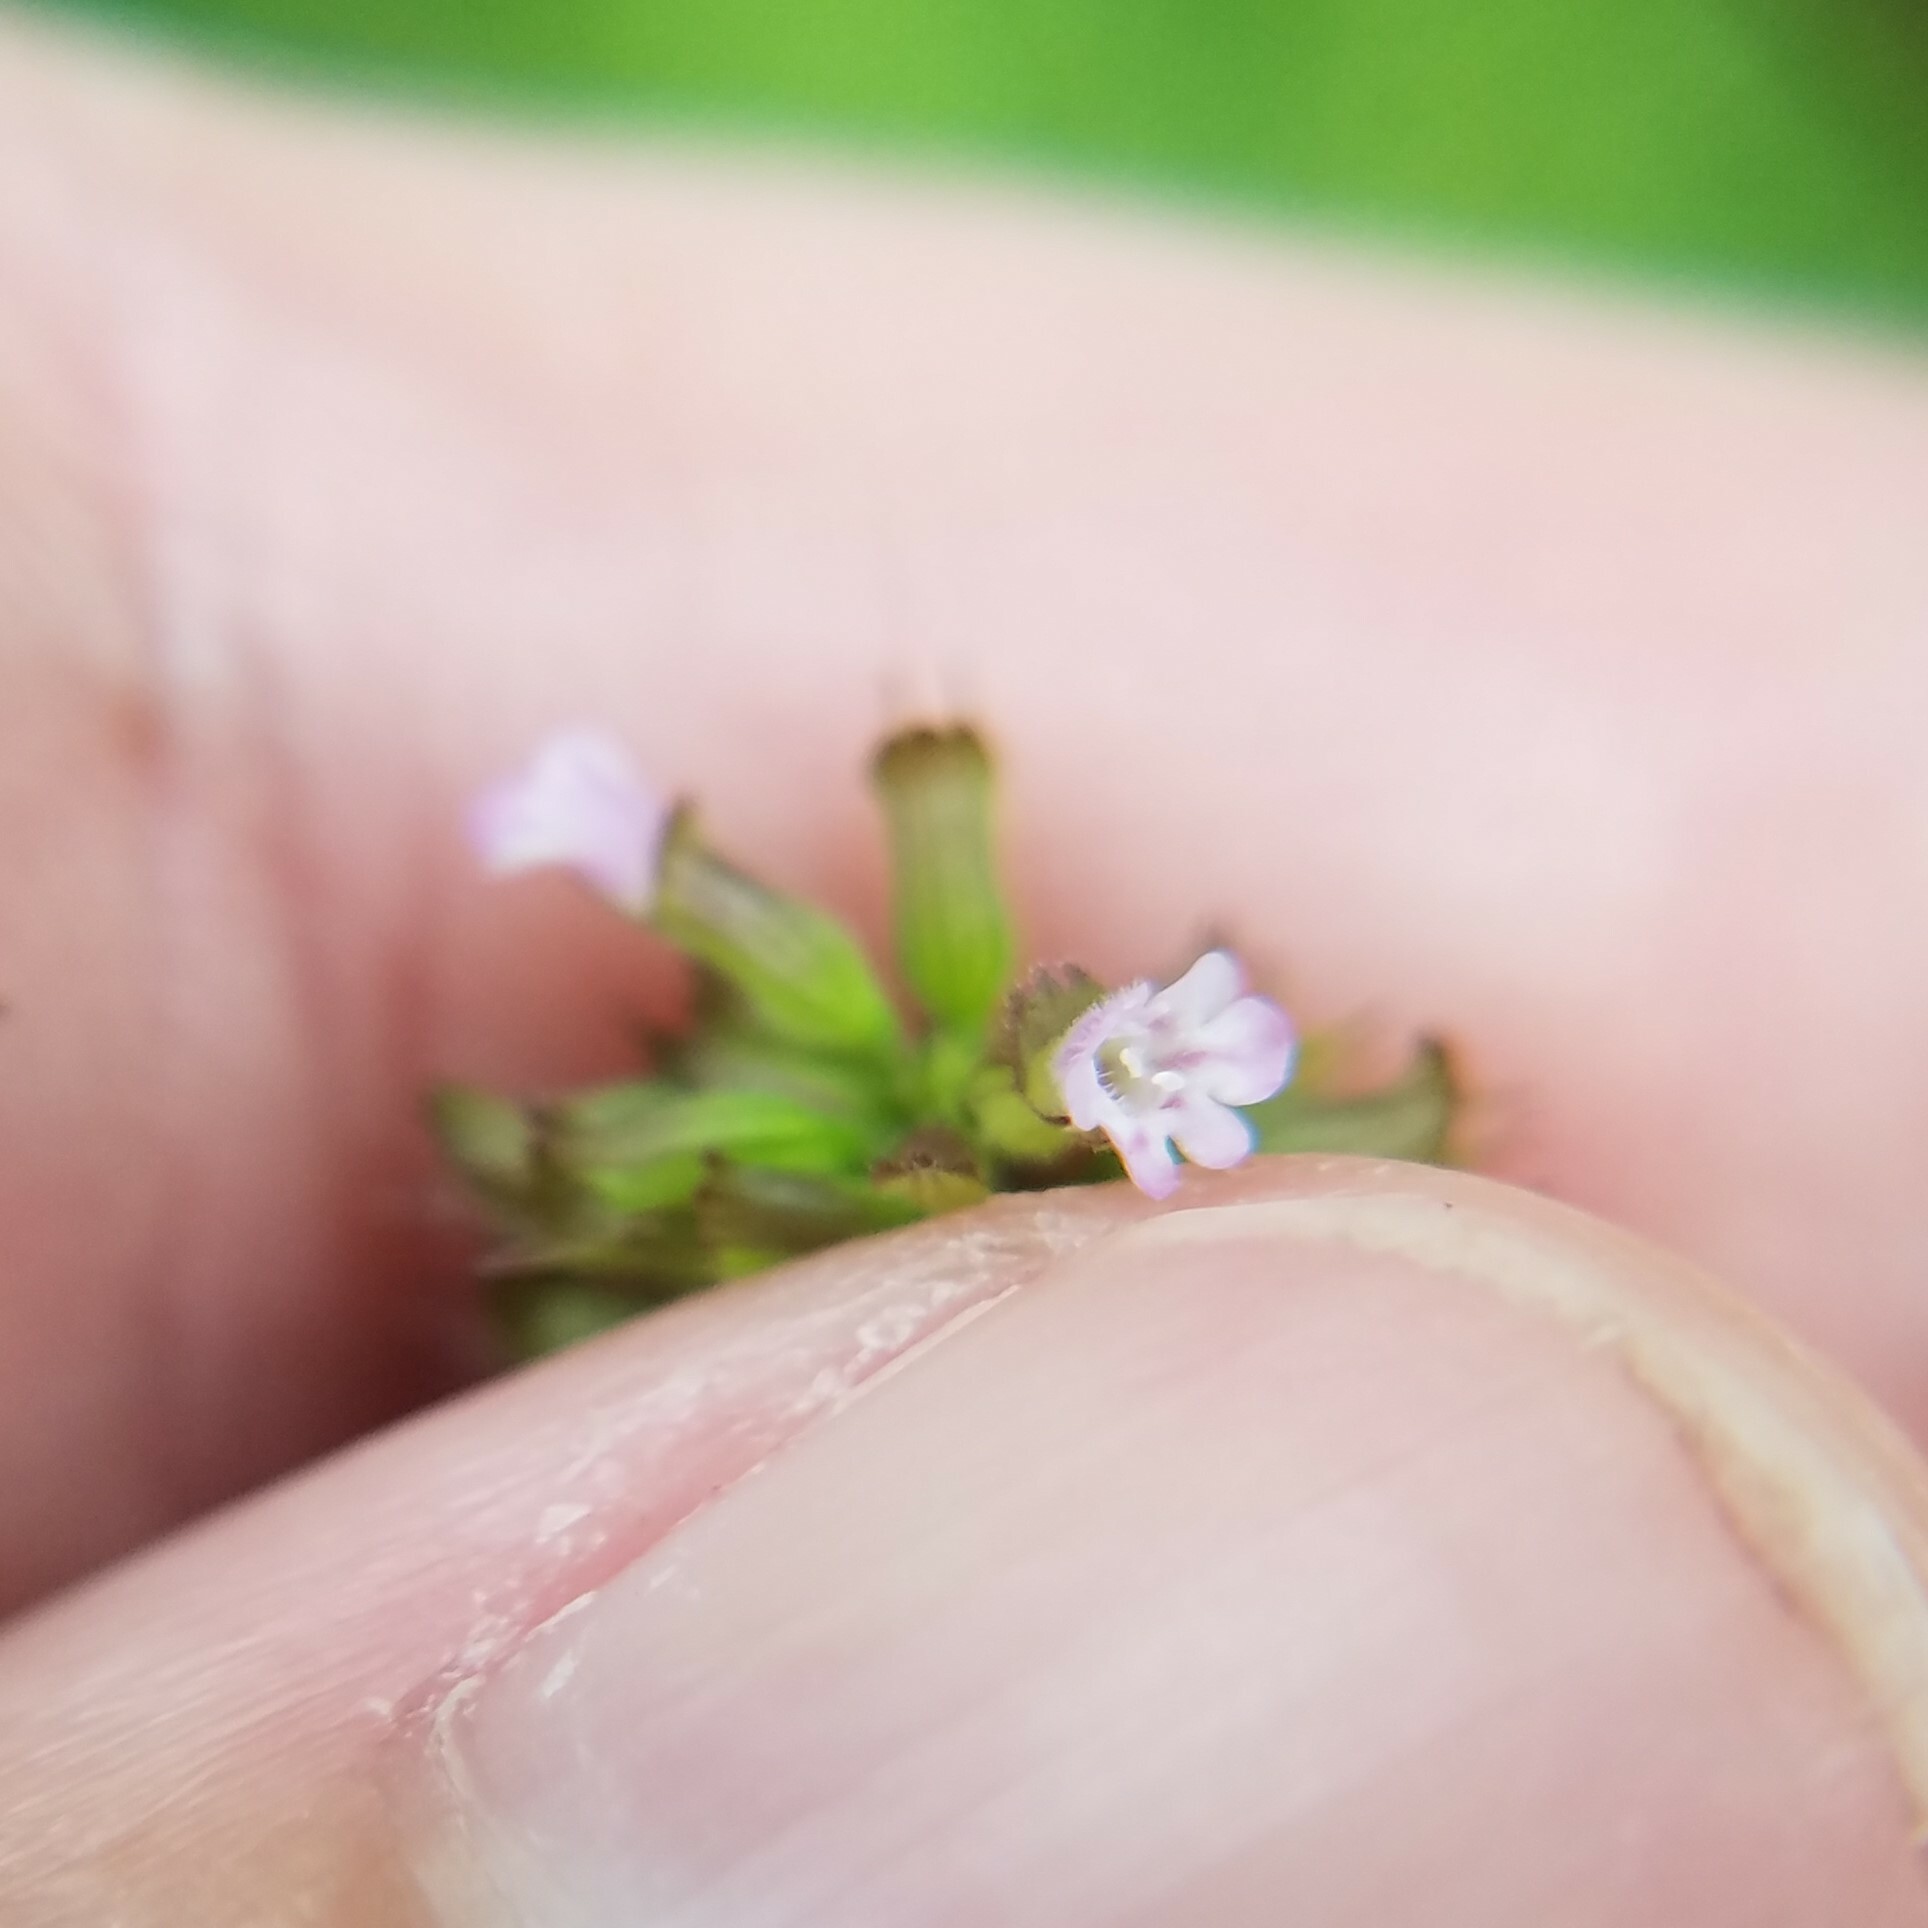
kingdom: Plantae
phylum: Tracheophyta
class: Magnoliopsida
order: Lamiales
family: Lamiaceae
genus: Clinopodium
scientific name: Clinopodium gracile
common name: Slender wild basil
